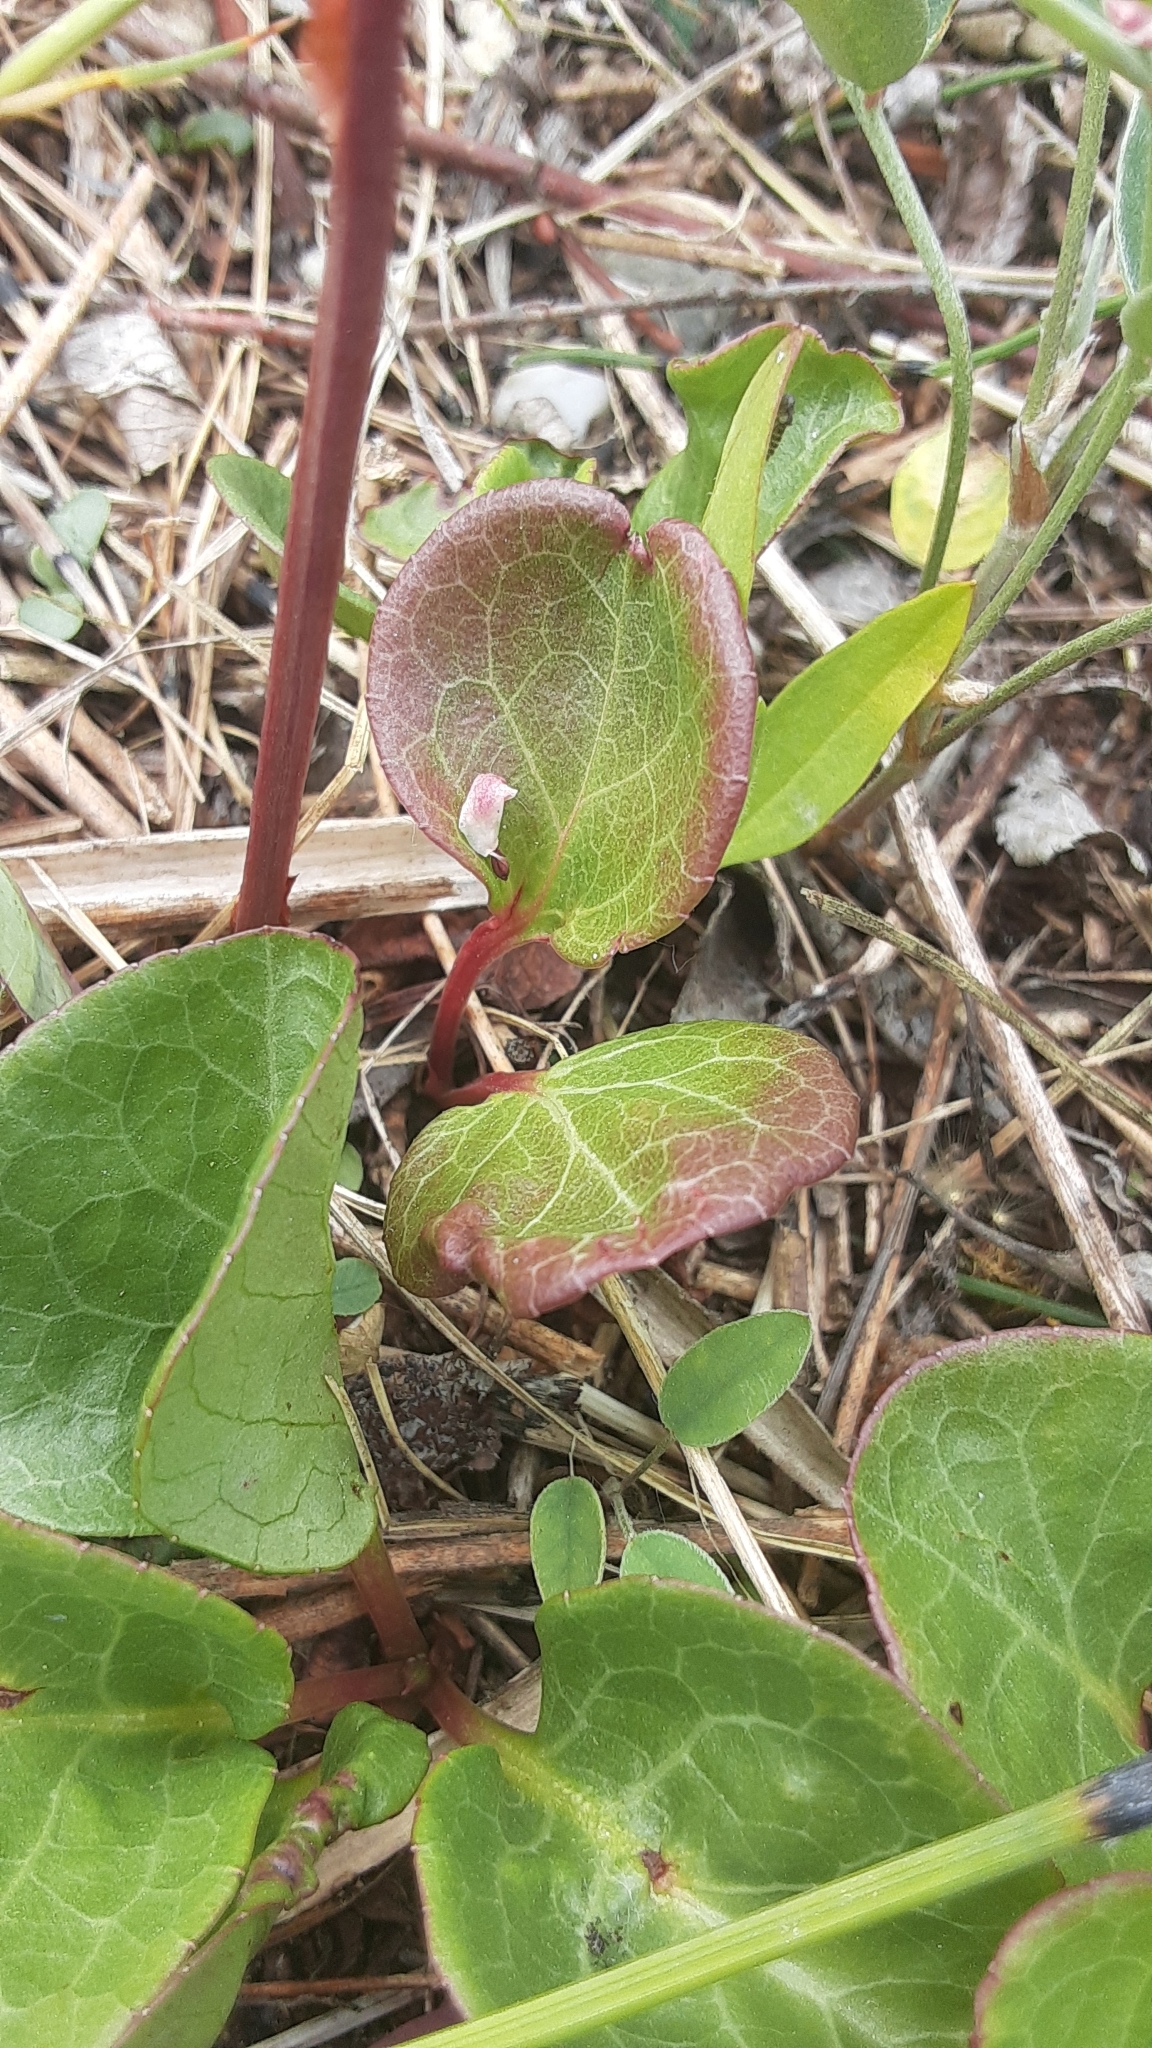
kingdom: Plantae
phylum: Tracheophyta
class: Magnoliopsida
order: Ericales
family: Ericaceae
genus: Pyrola
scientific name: Pyrola asarifolia
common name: Bog wintergreen
